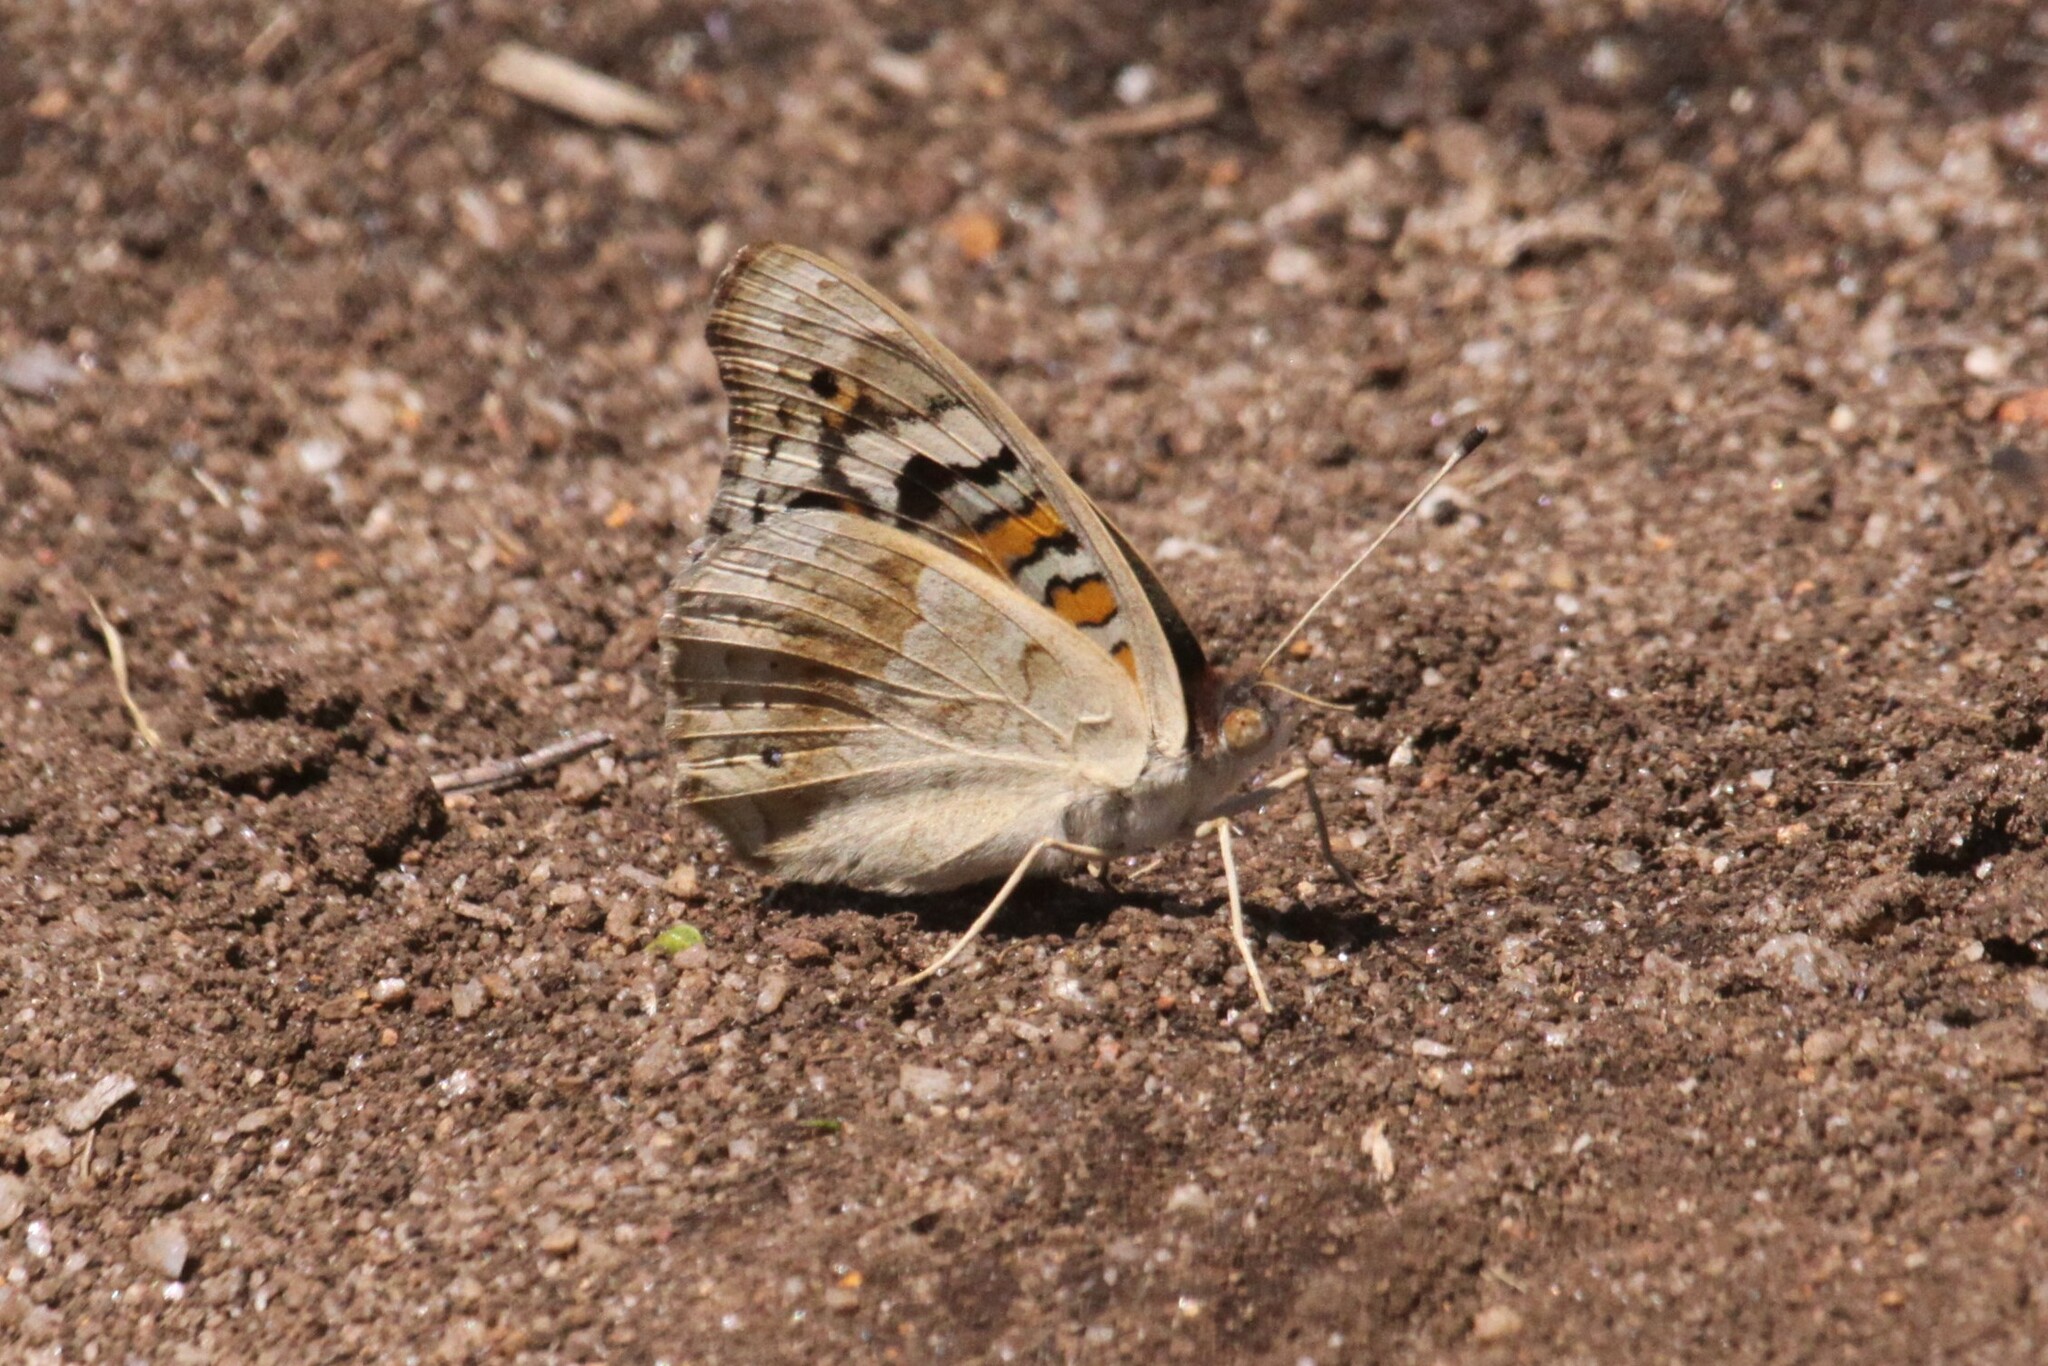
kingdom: Animalia
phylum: Arthropoda
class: Insecta
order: Lepidoptera
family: Nymphalidae
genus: Junonia
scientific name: Junonia orithya
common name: Blue pansy
